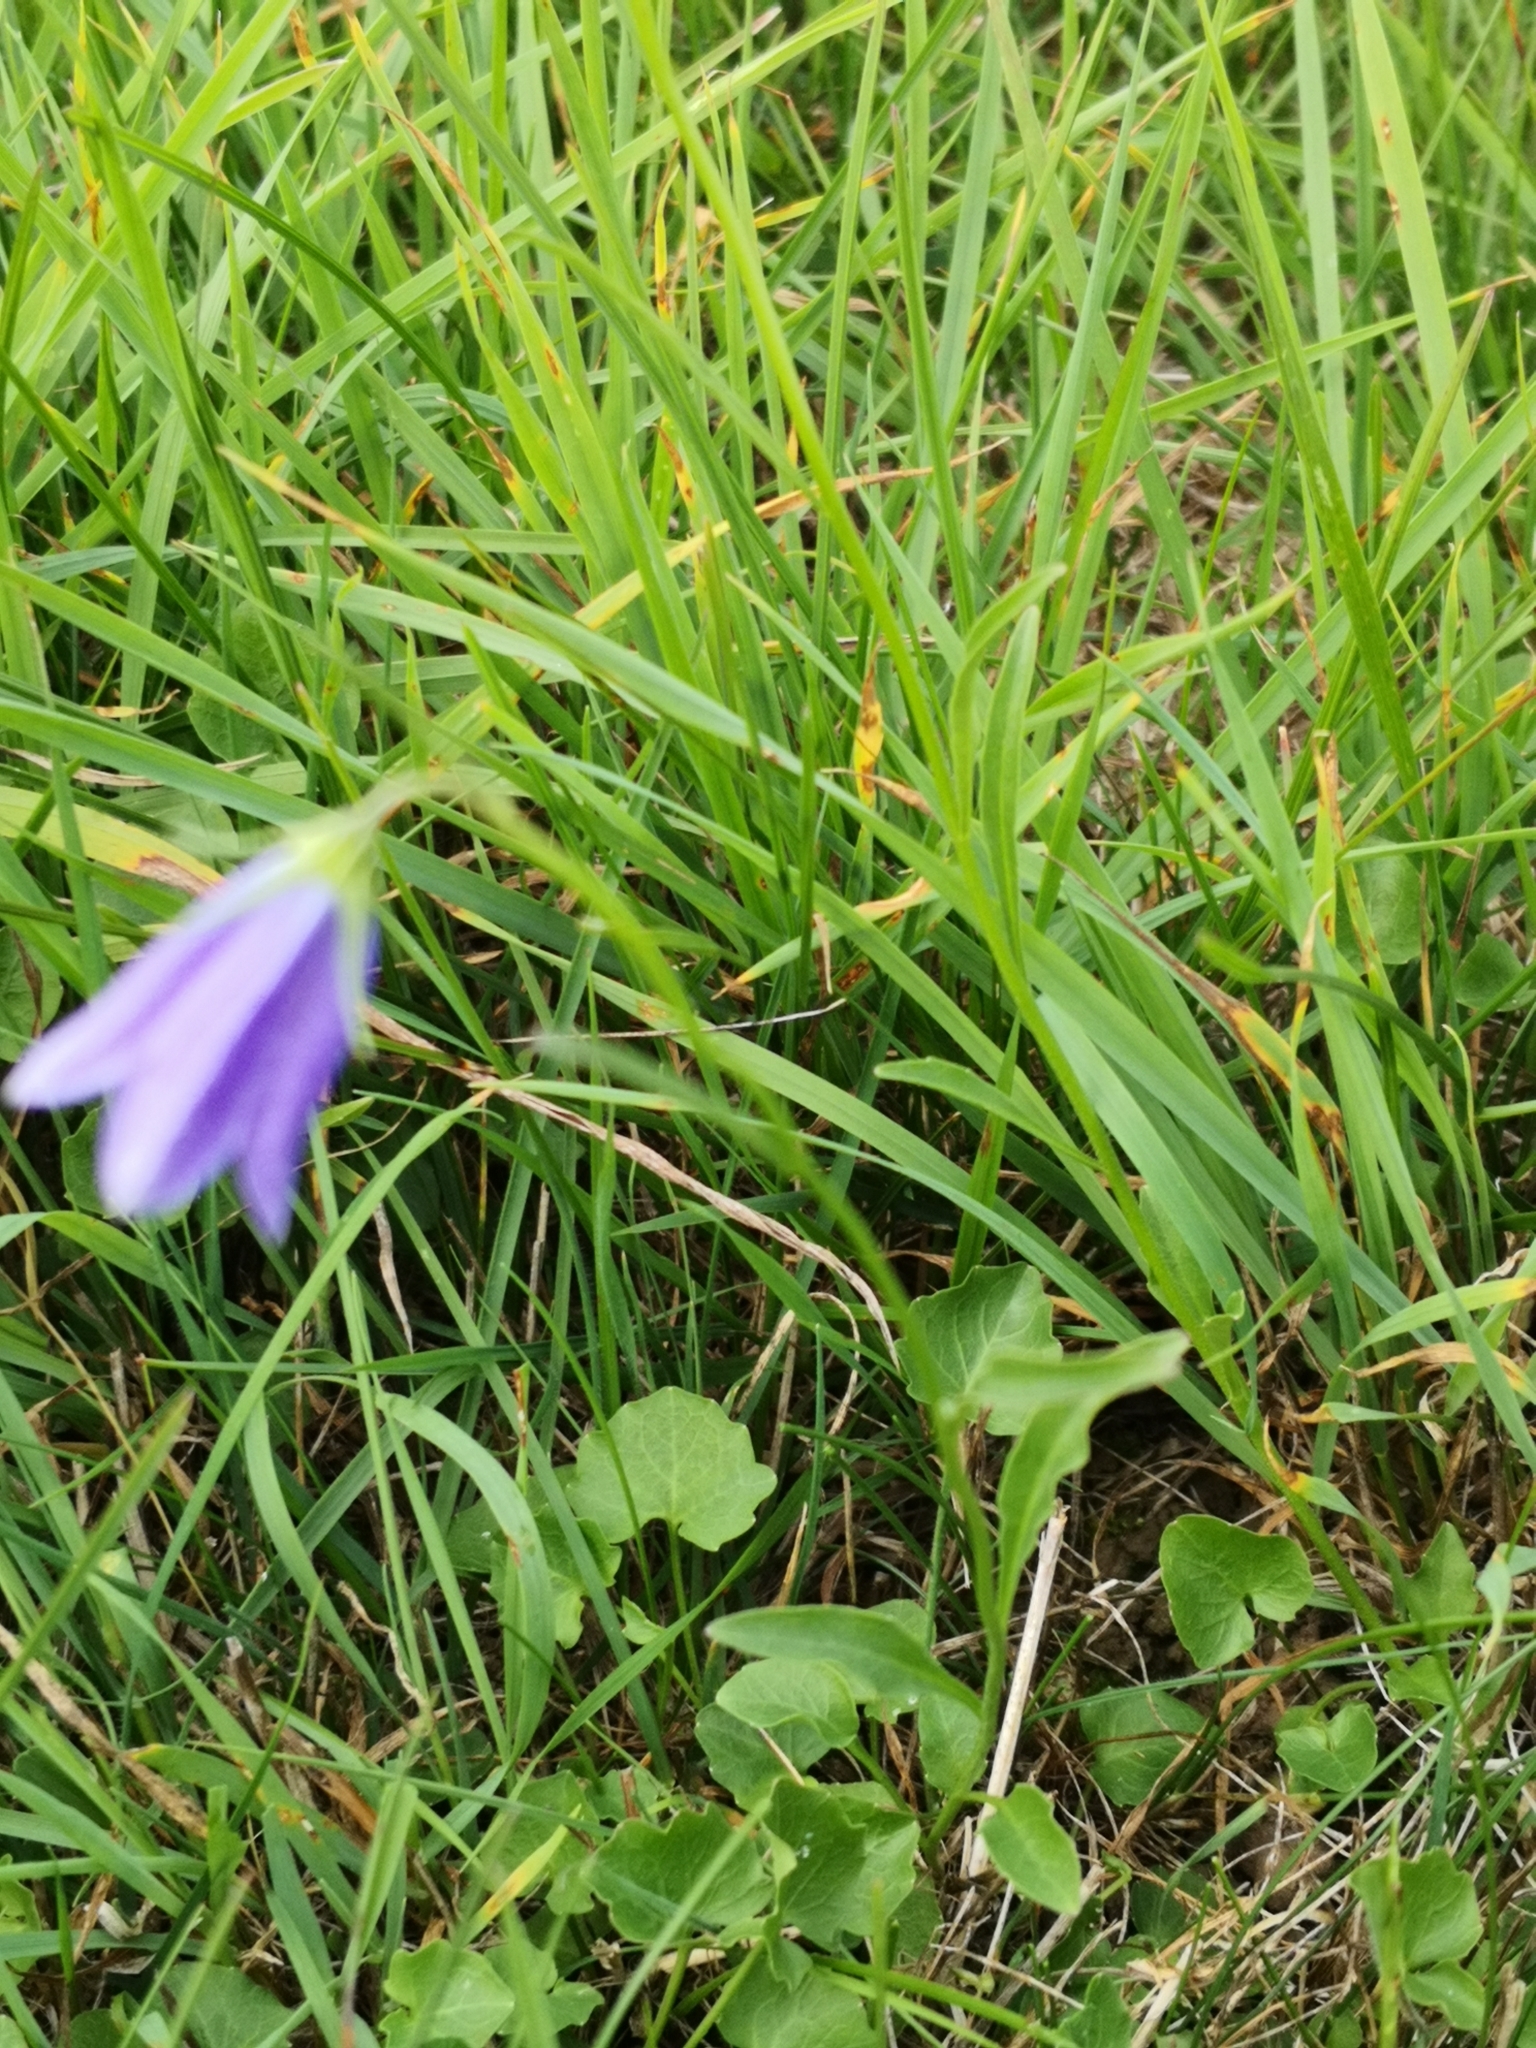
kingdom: Plantae
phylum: Tracheophyta
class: Magnoliopsida
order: Asterales
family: Campanulaceae
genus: Campanula
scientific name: Campanula rotundifolia
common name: Harebell
